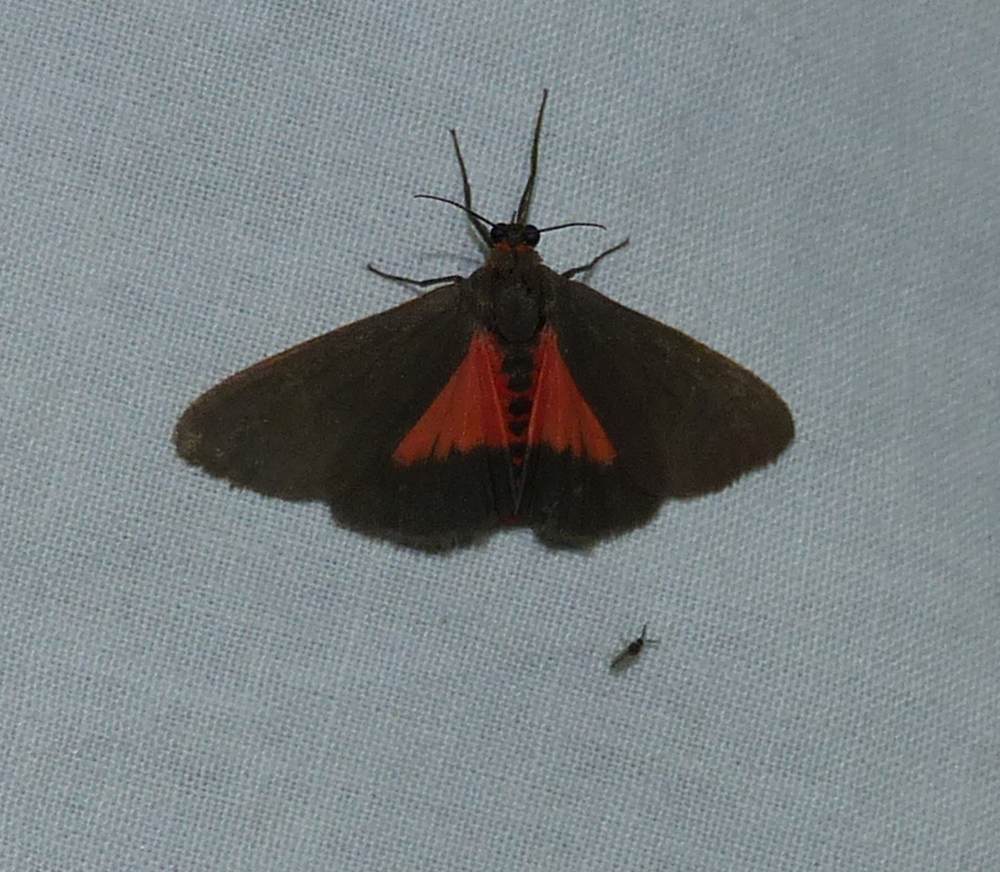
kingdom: Animalia
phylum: Arthropoda
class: Insecta
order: Lepidoptera
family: Erebidae
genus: Virbia
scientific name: Virbia laeta
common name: Joyful holomelina moth
